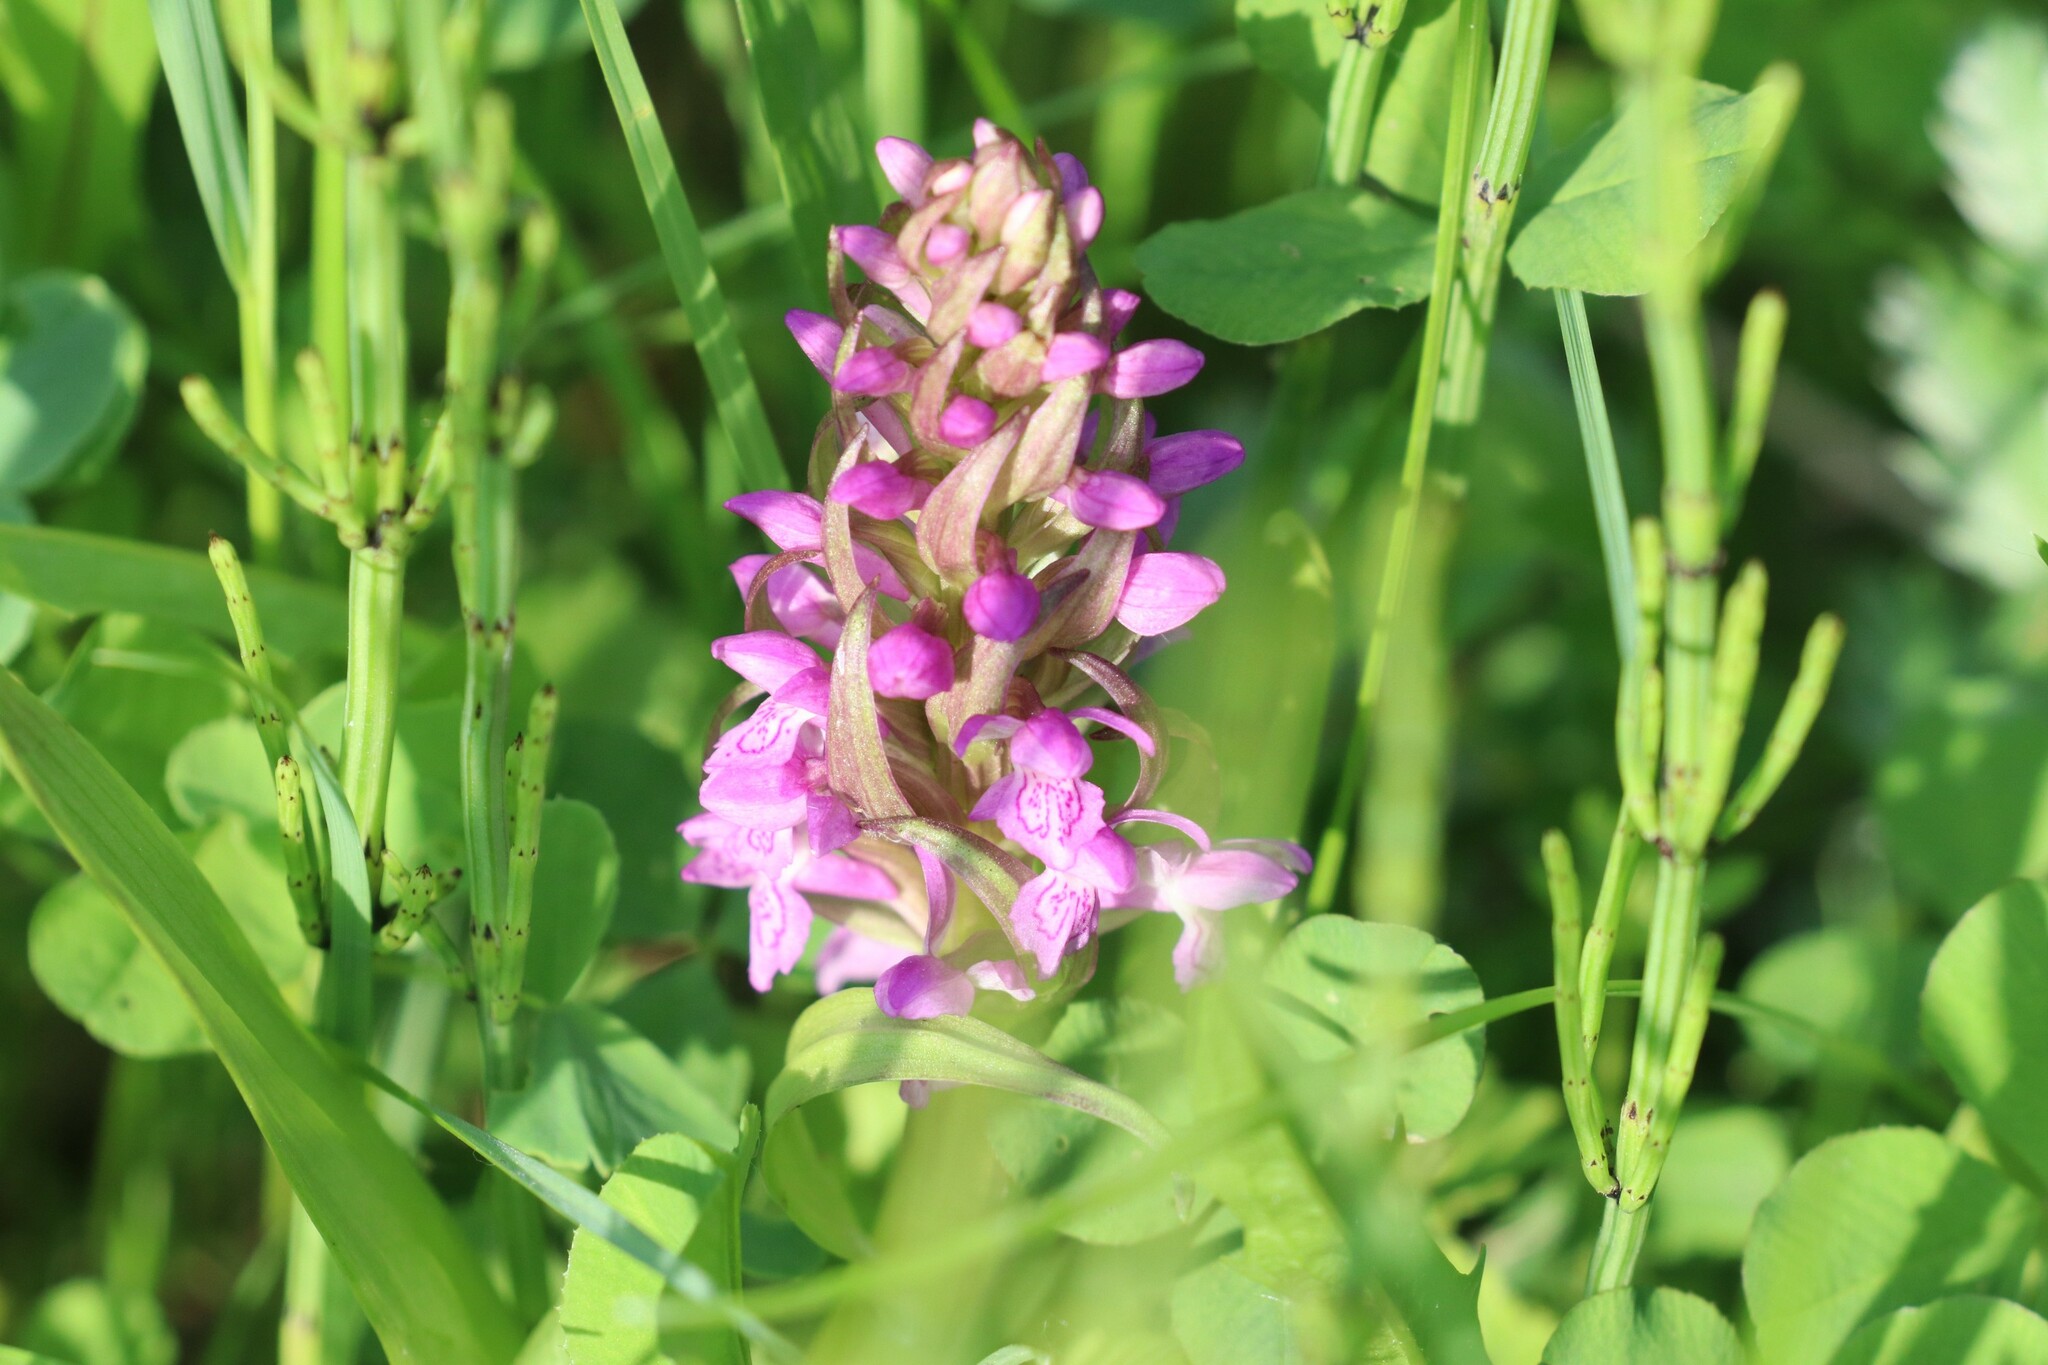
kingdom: Plantae
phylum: Tracheophyta
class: Liliopsida
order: Asparagales
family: Orchidaceae
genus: Dactylorhiza
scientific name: Dactylorhiza incarnata
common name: Early marsh-orchid
